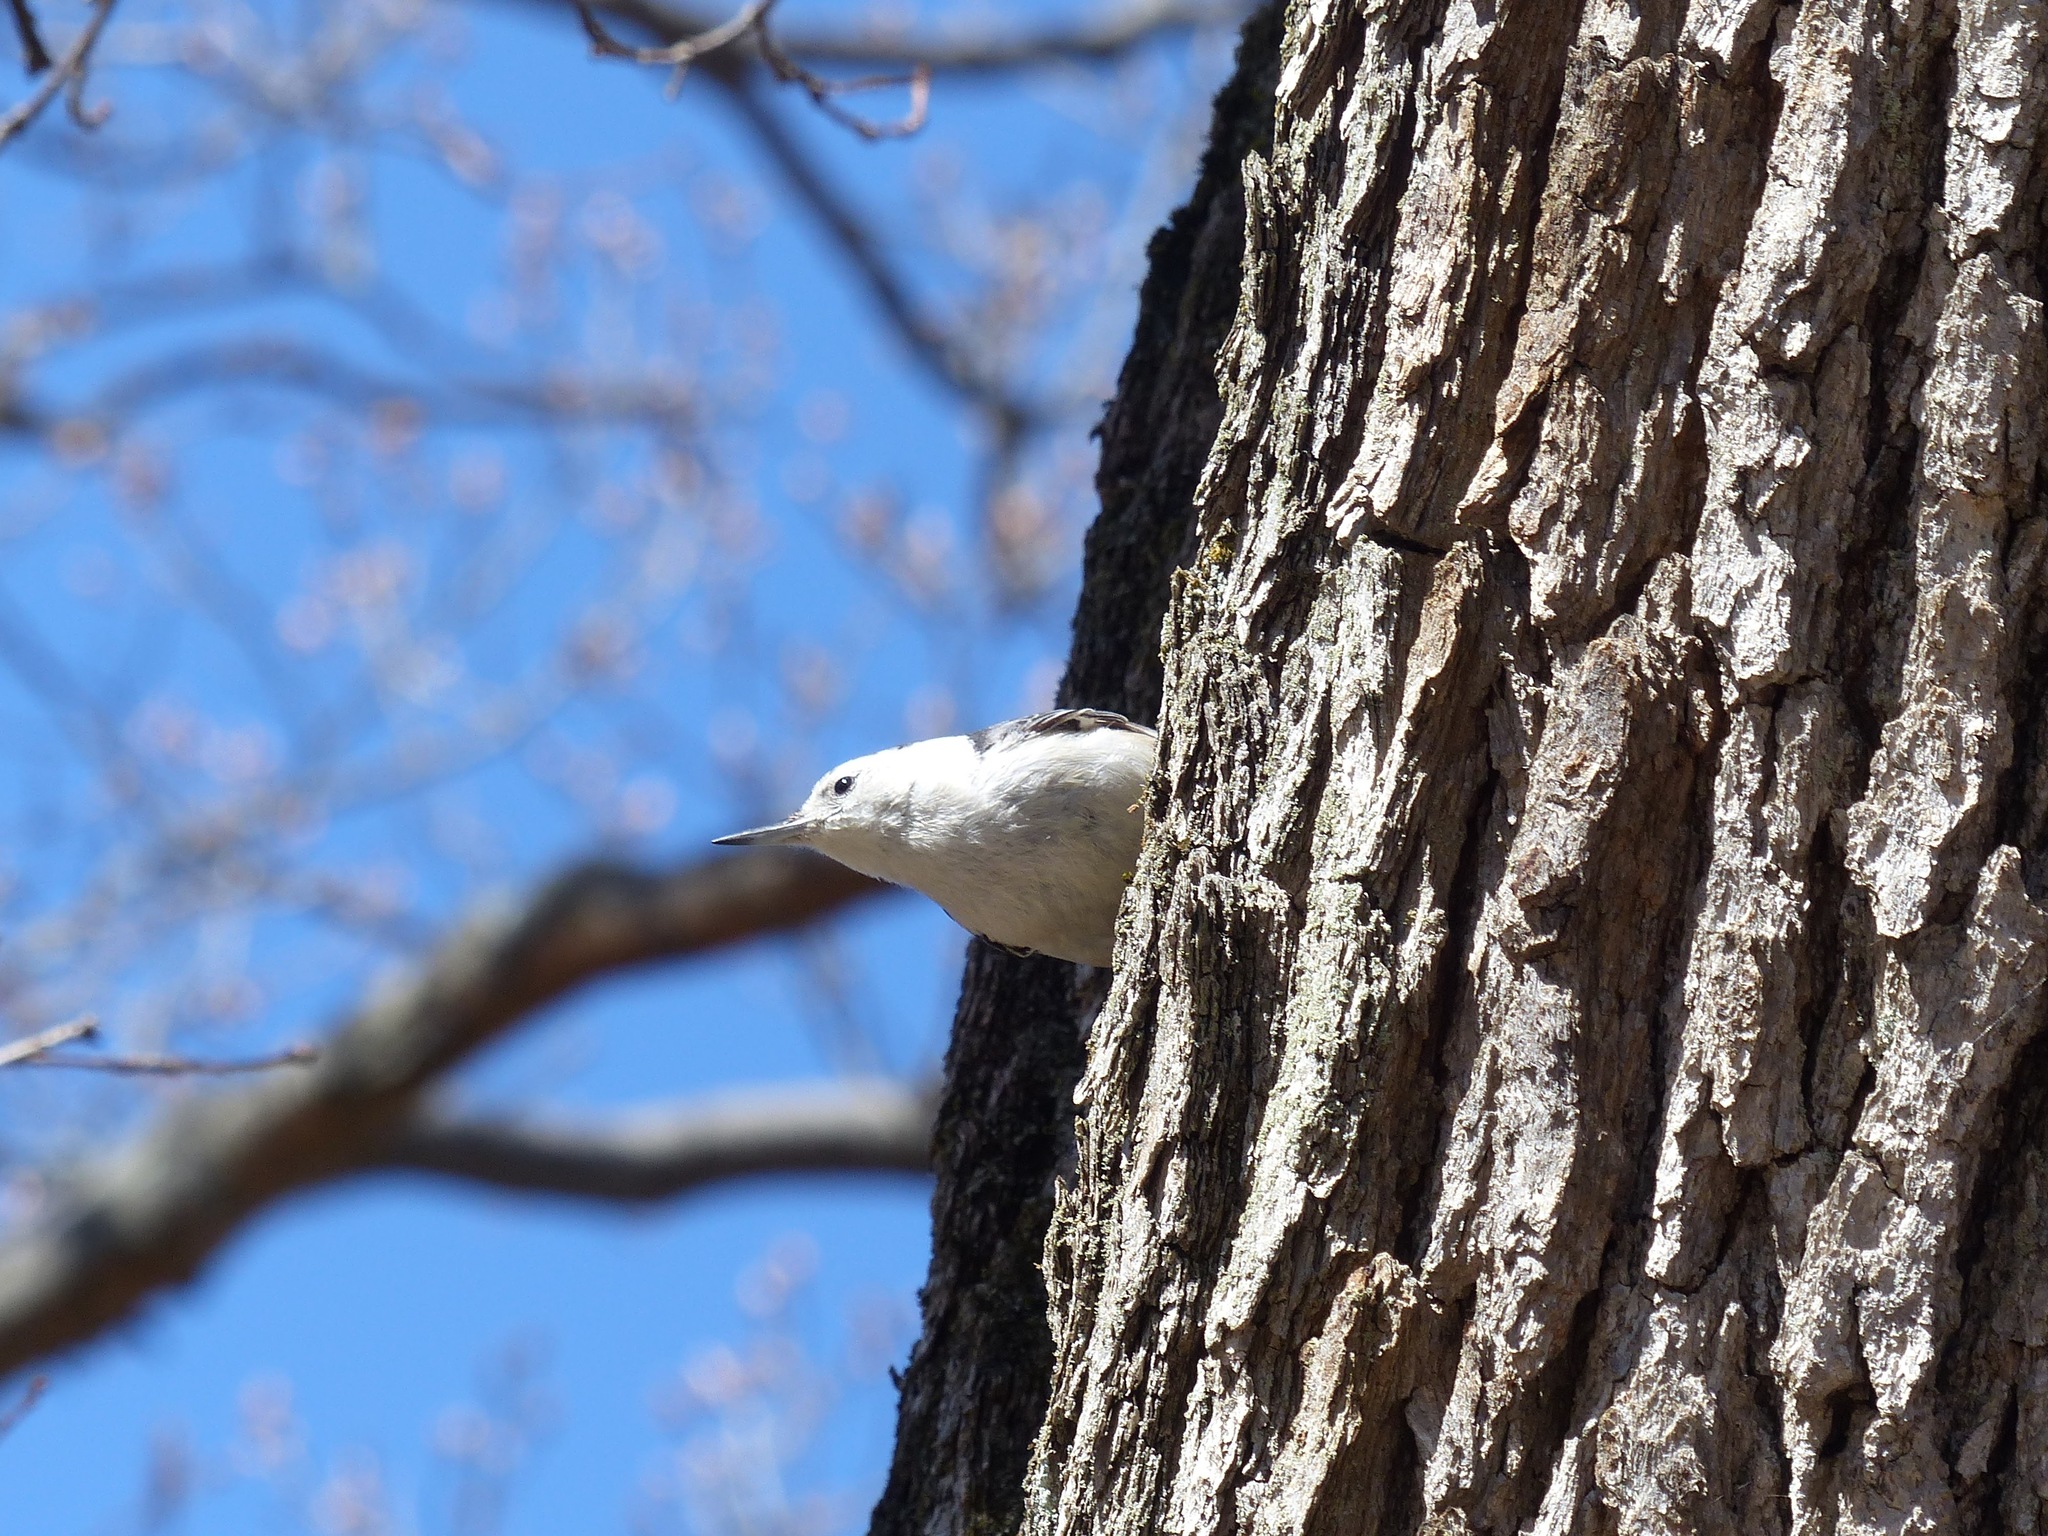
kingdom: Animalia
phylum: Chordata
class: Aves
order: Passeriformes
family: Sittidae
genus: Sitta
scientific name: Sitta carolinensis
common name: White-breasted nuthatch
